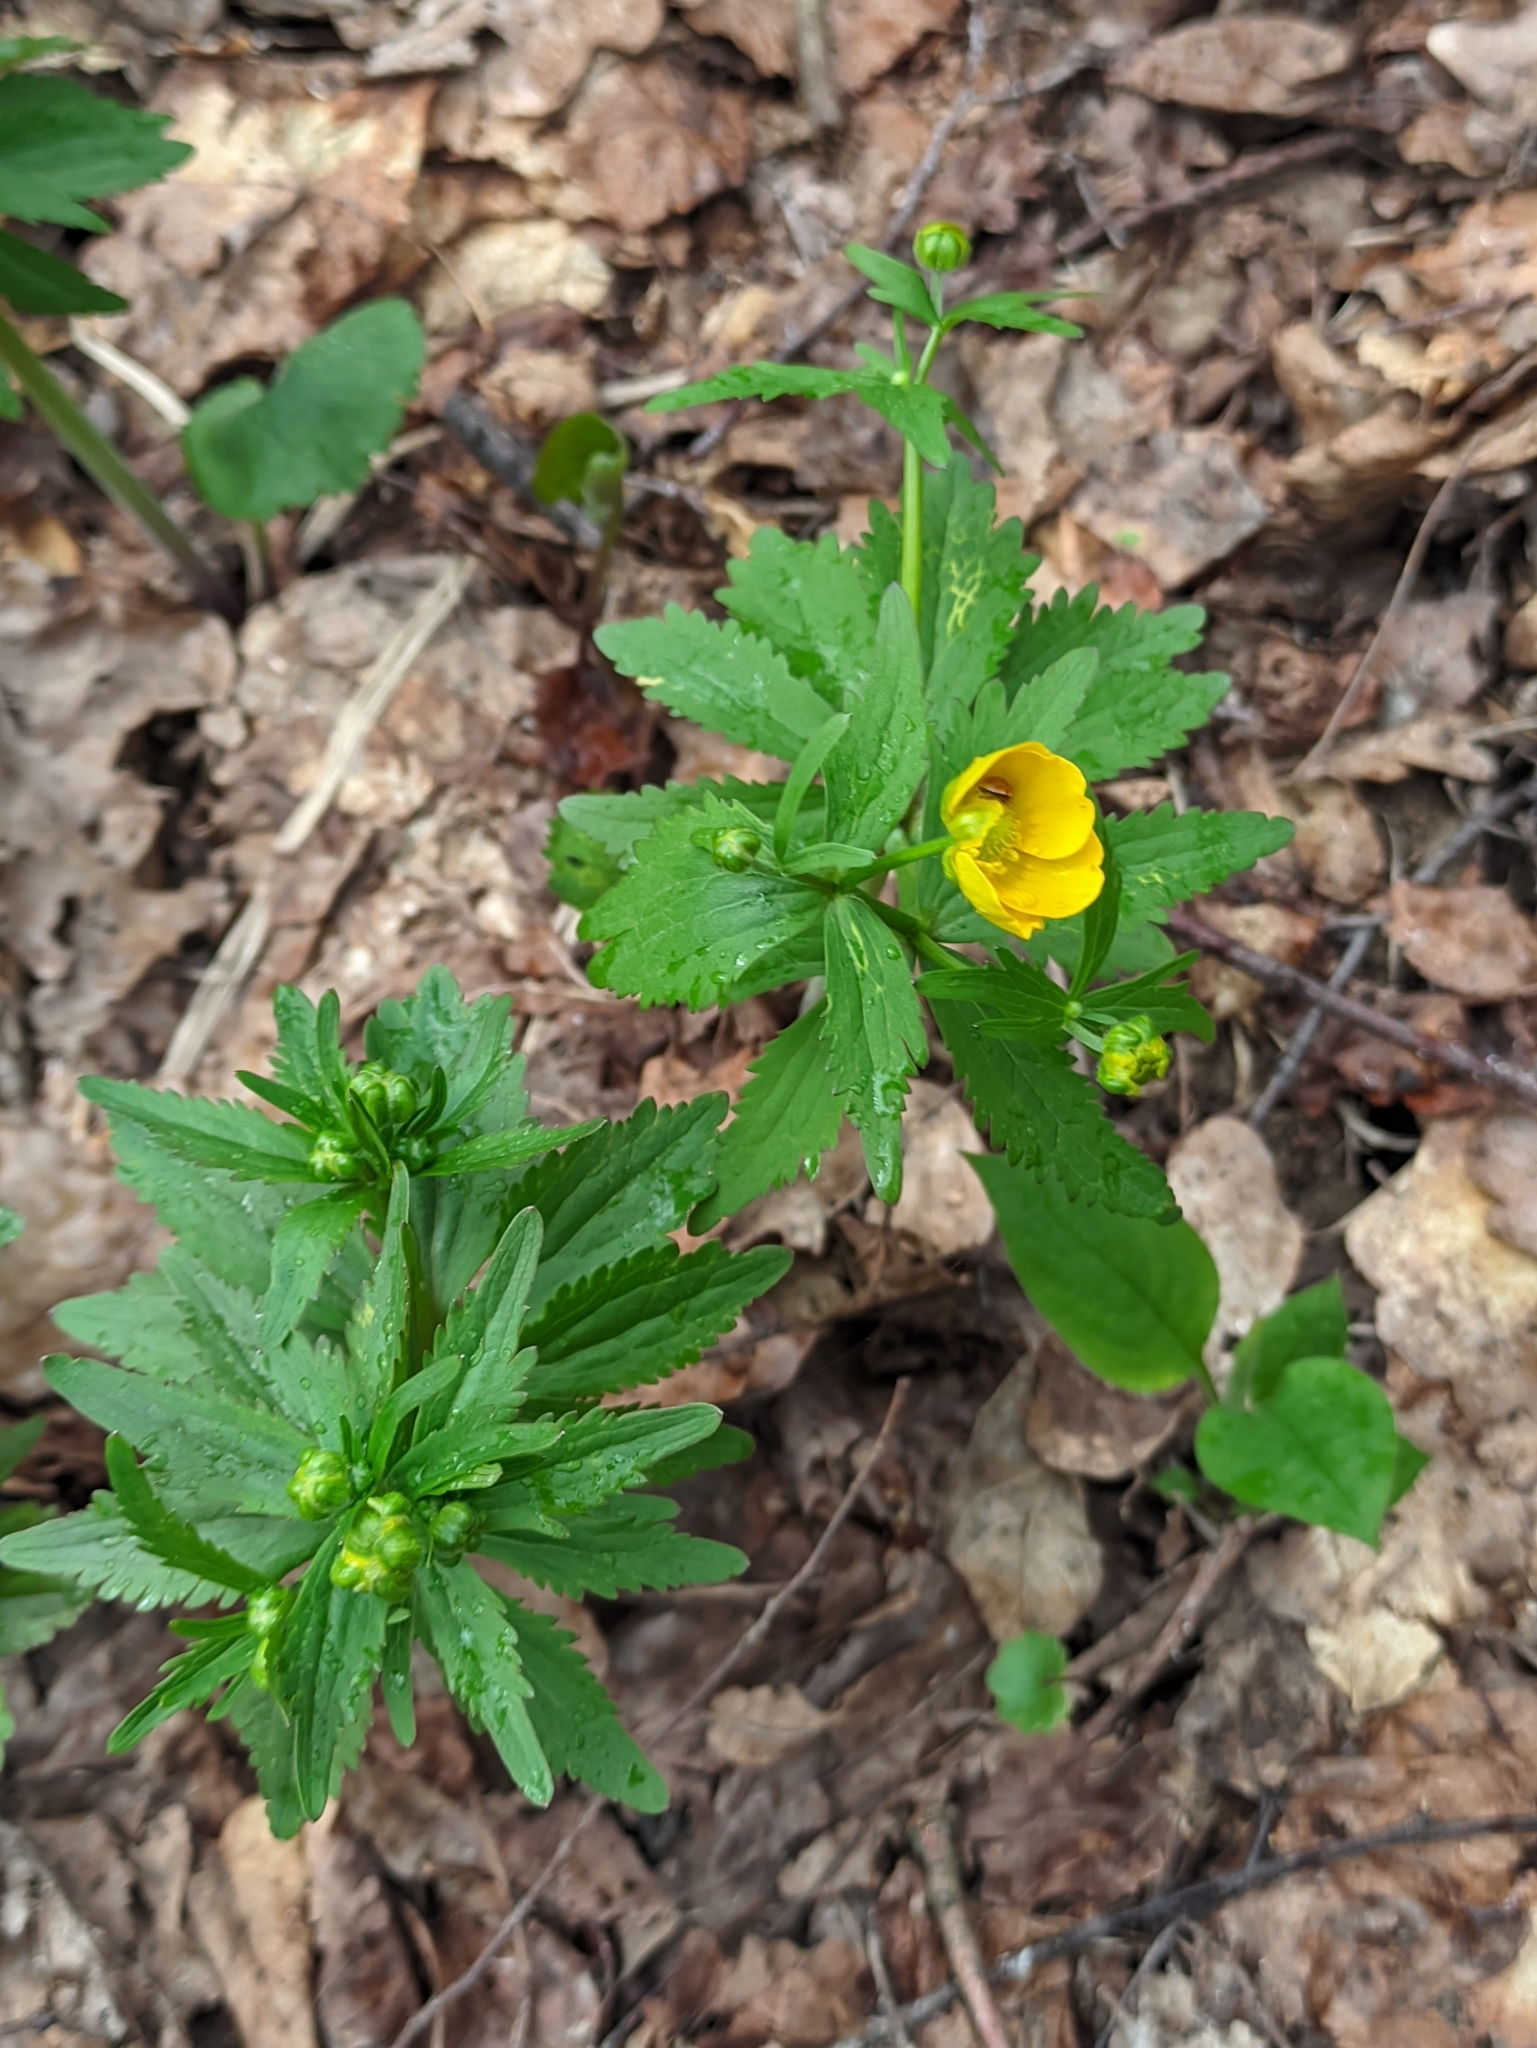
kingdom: Plantae
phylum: Tracheophyta
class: Magnoliopsida
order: Ranunculales
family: Ranunculaceae
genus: Ranunculus
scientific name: Ranunculus cassubicus
